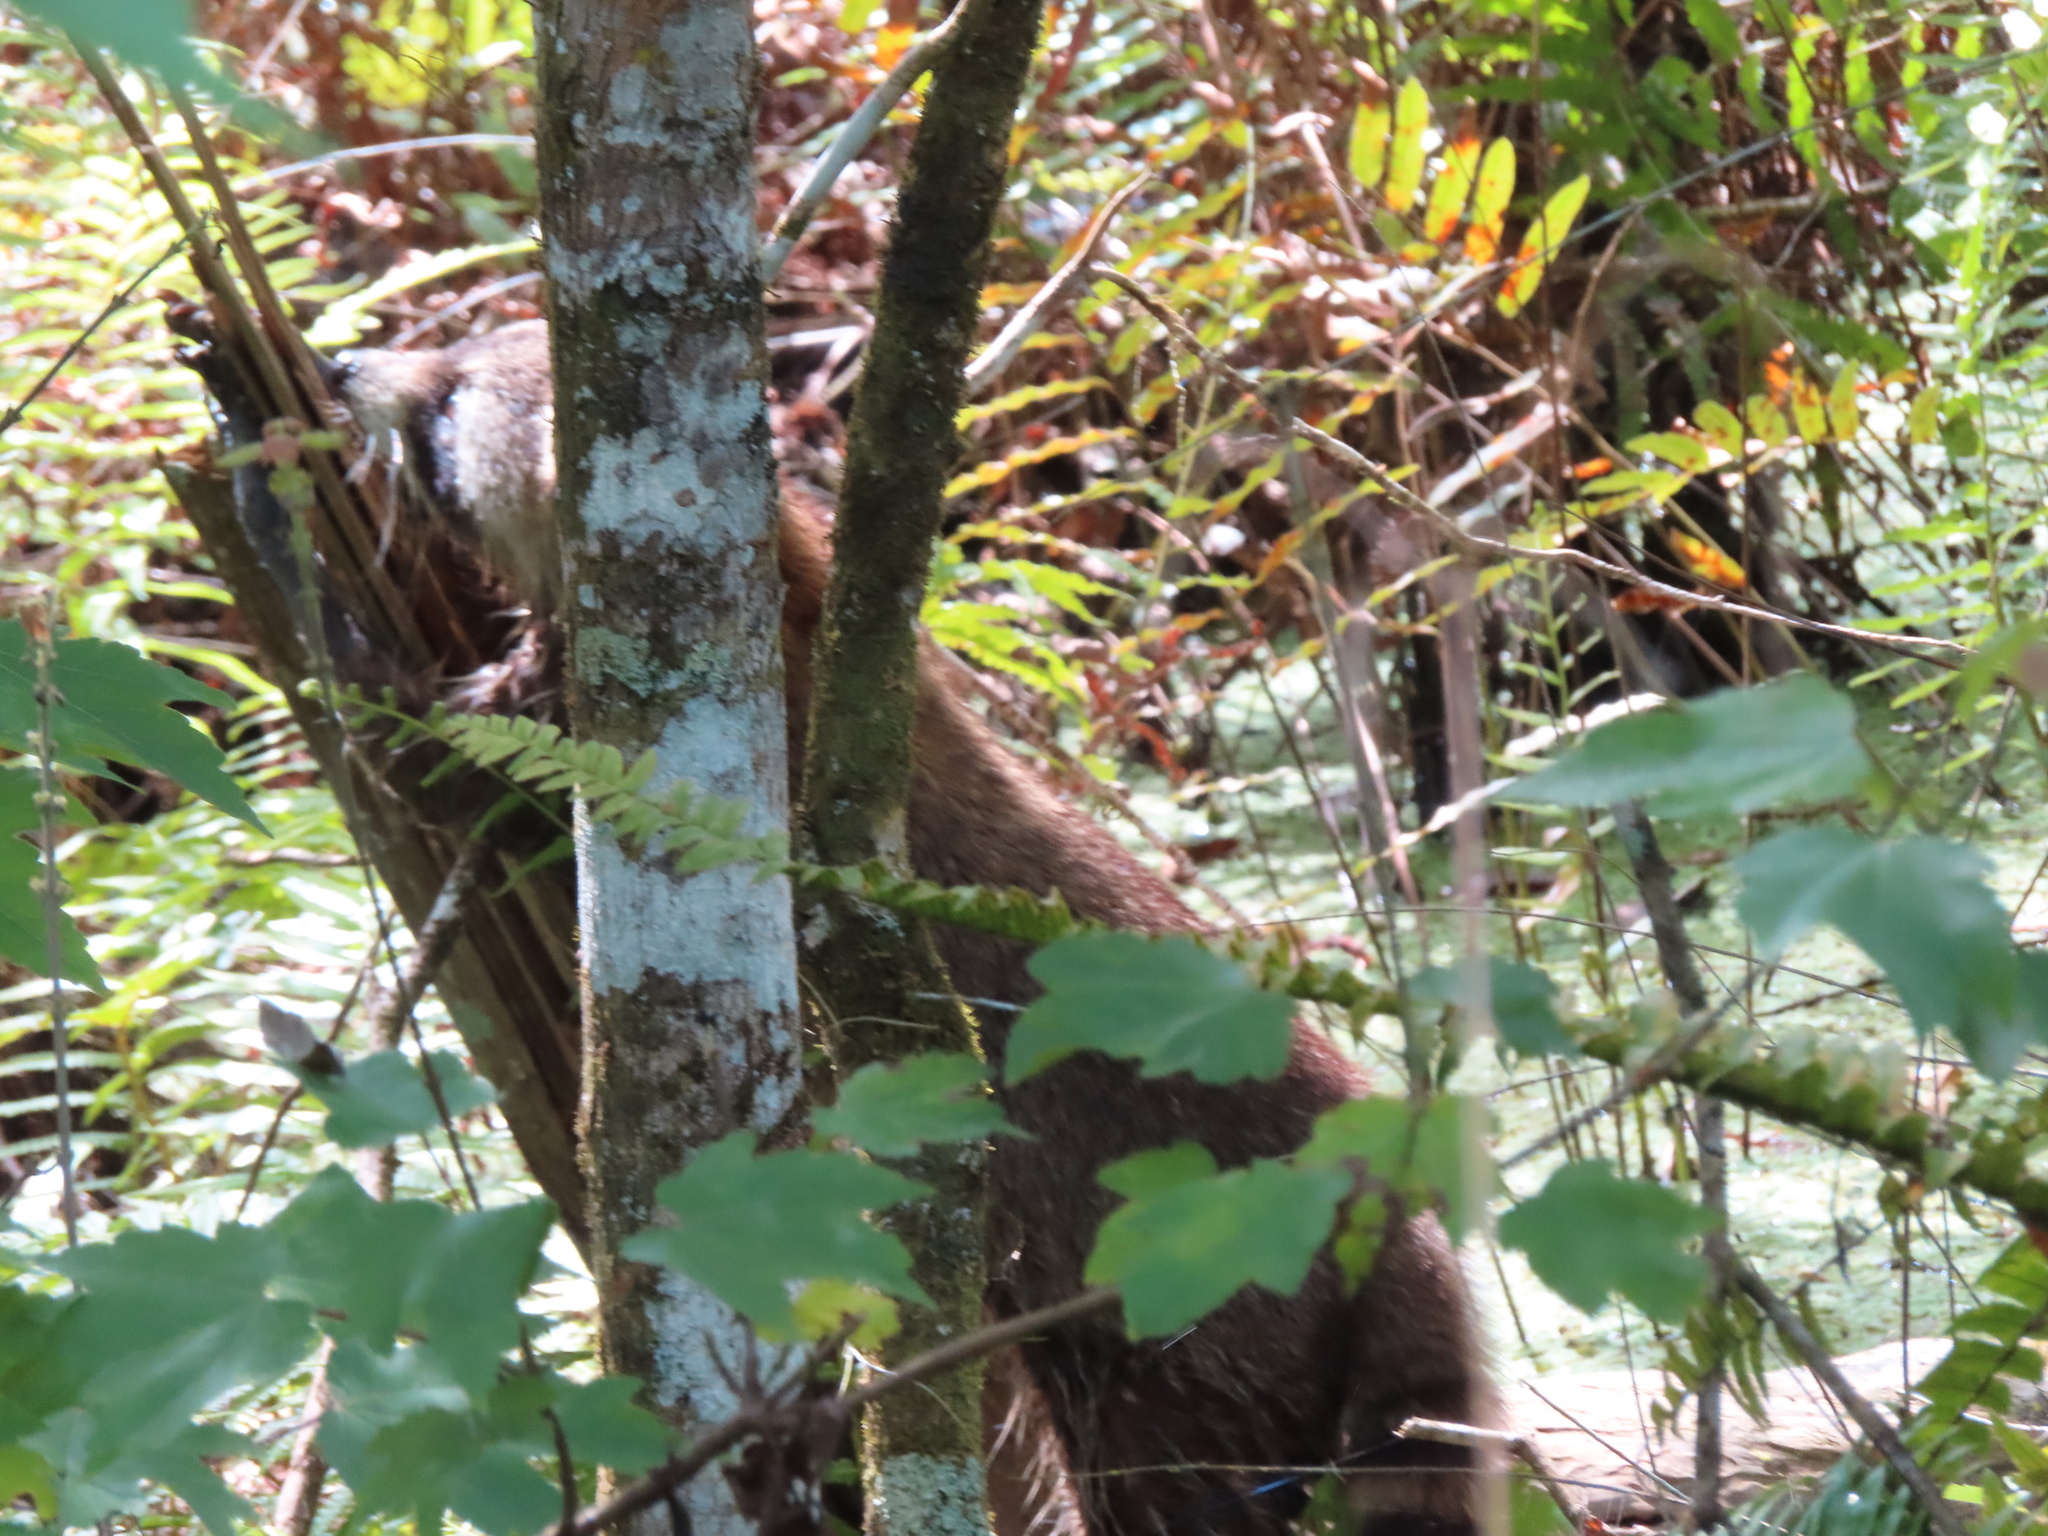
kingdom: Animalia
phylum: Chordata
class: Mammalia
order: Carnivora
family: Procyonidae
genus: Procyon
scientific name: Procyon lotor
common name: Raccoon
